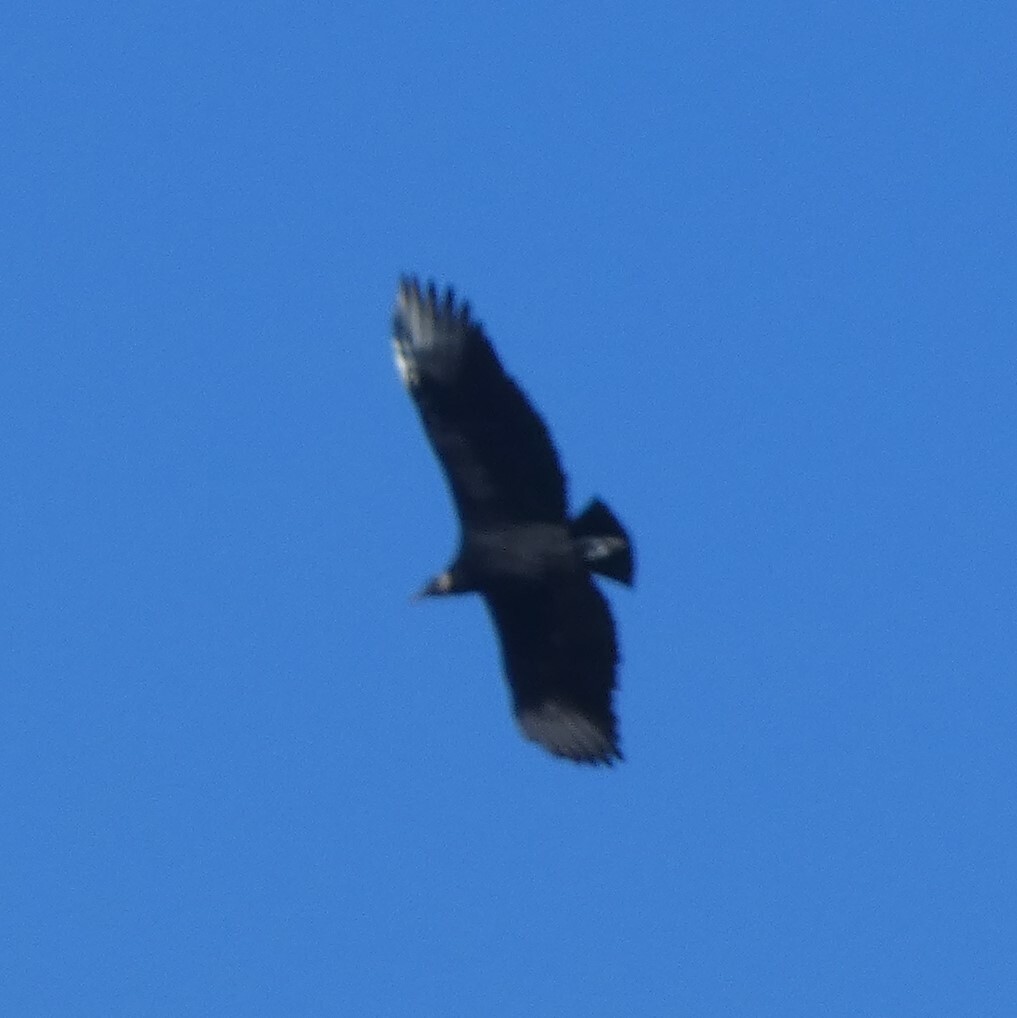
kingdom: Animalia
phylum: Chordata
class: Aves
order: Accipitriformes
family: Cathartidae
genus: Coragyps
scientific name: Coragyps atratus
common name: Black vulture
